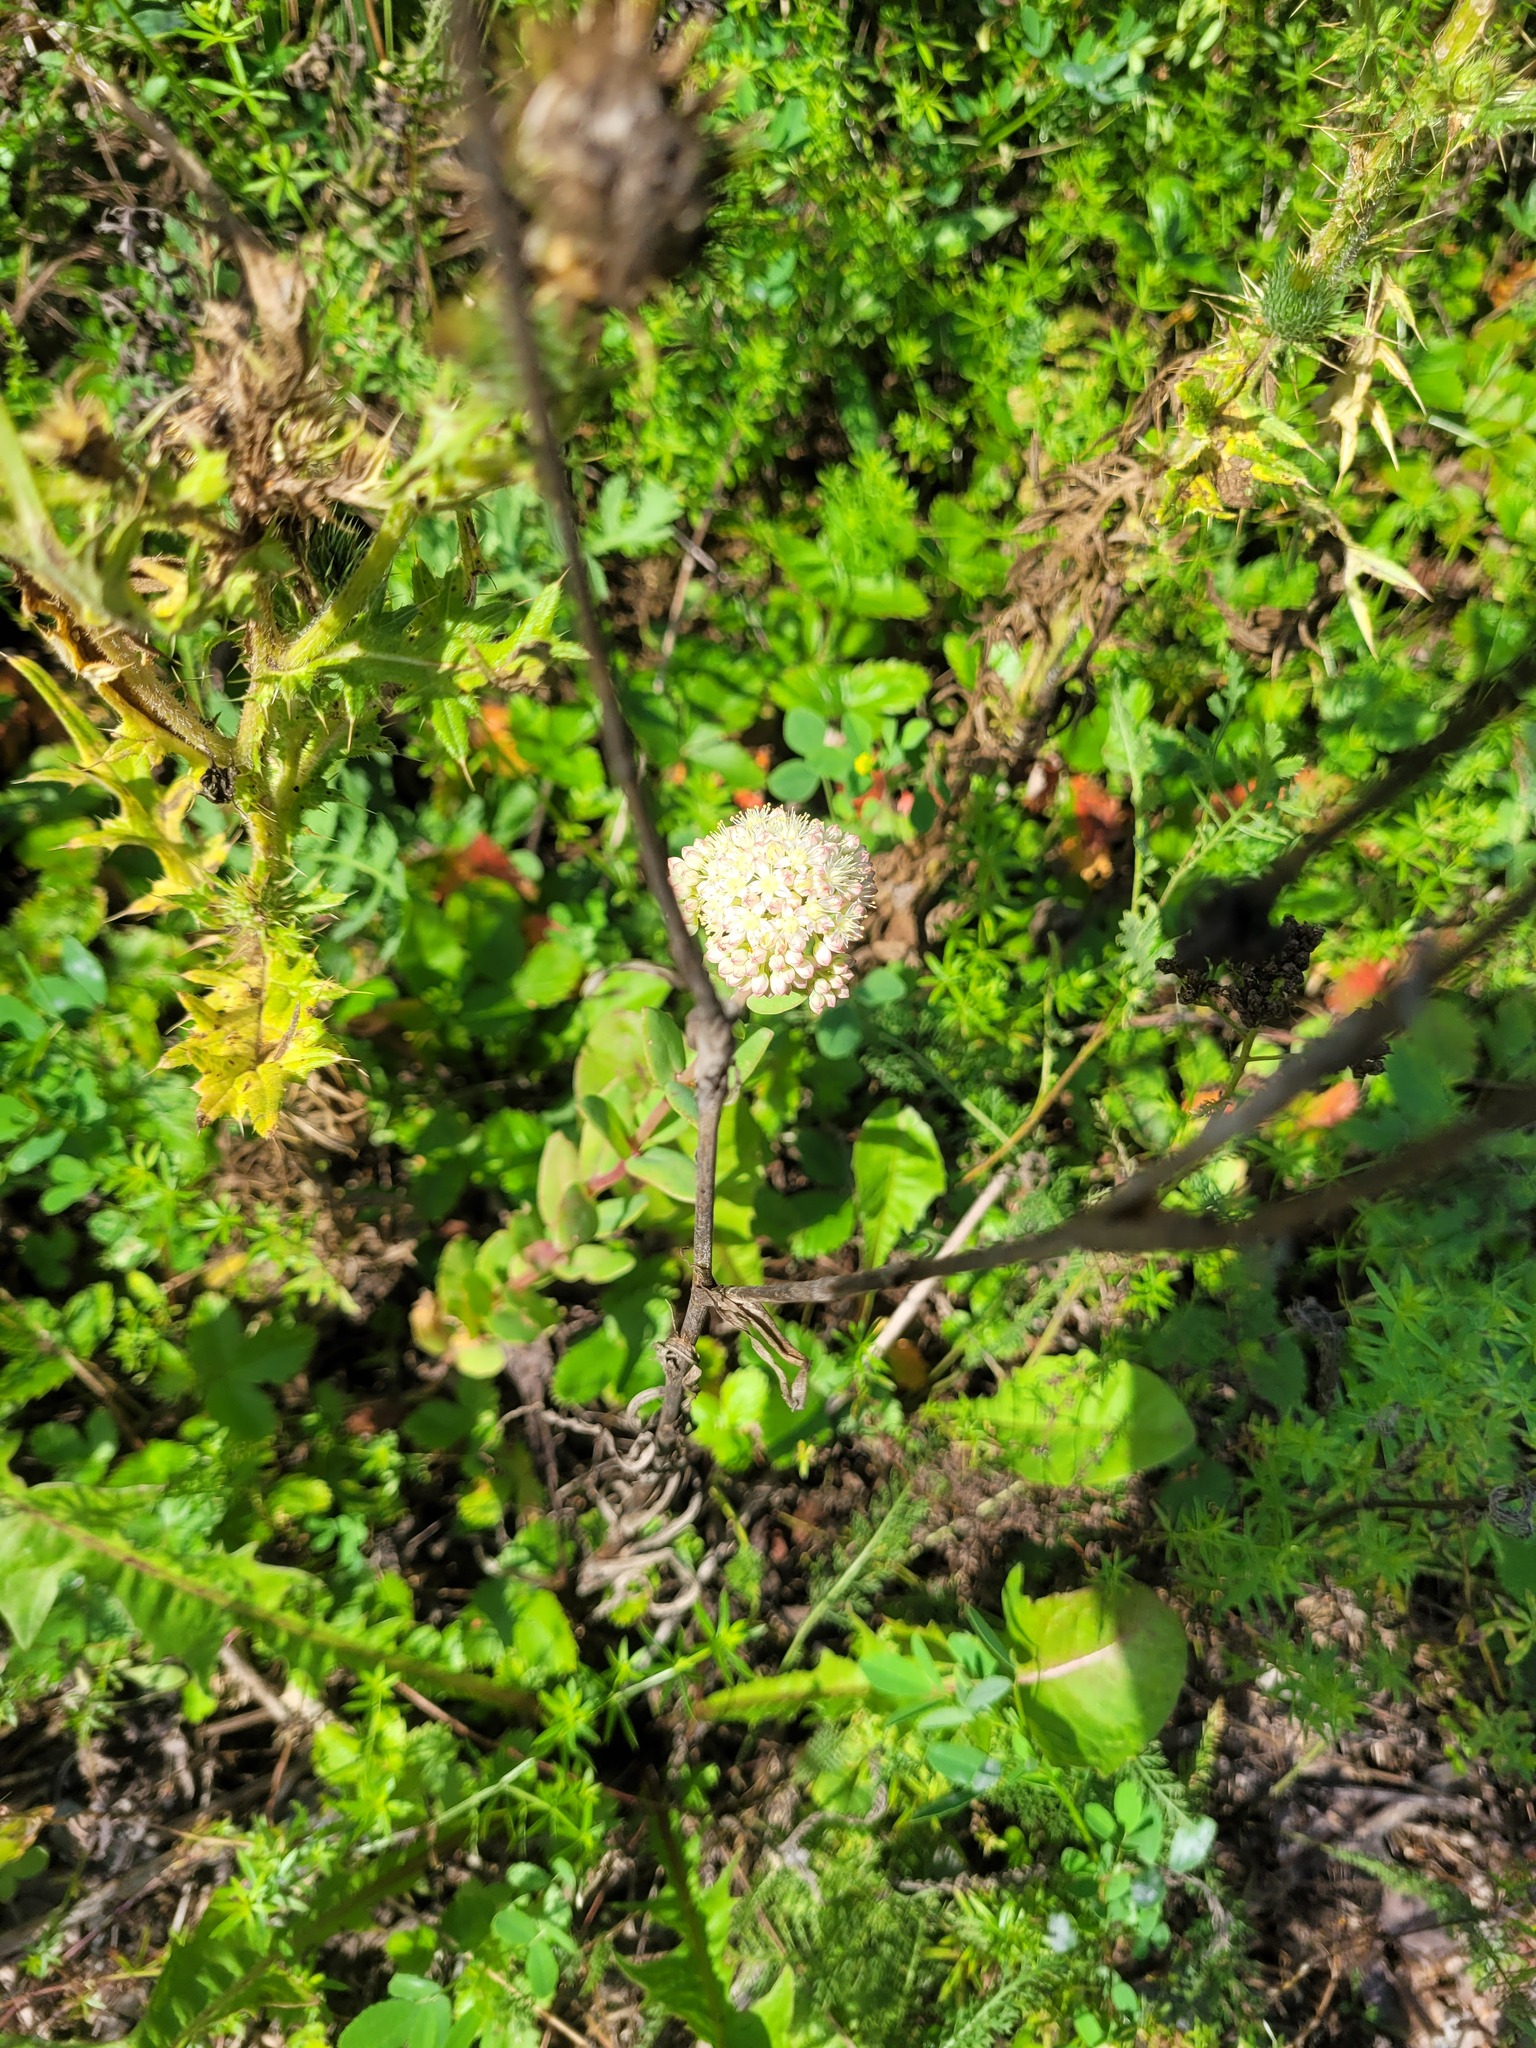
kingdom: Plantae
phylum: Tracheophyta
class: Magnoliopsida
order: Saxifragales
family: Crassulaceae
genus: Hylotelephium
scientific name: Hylotelephium maximum
